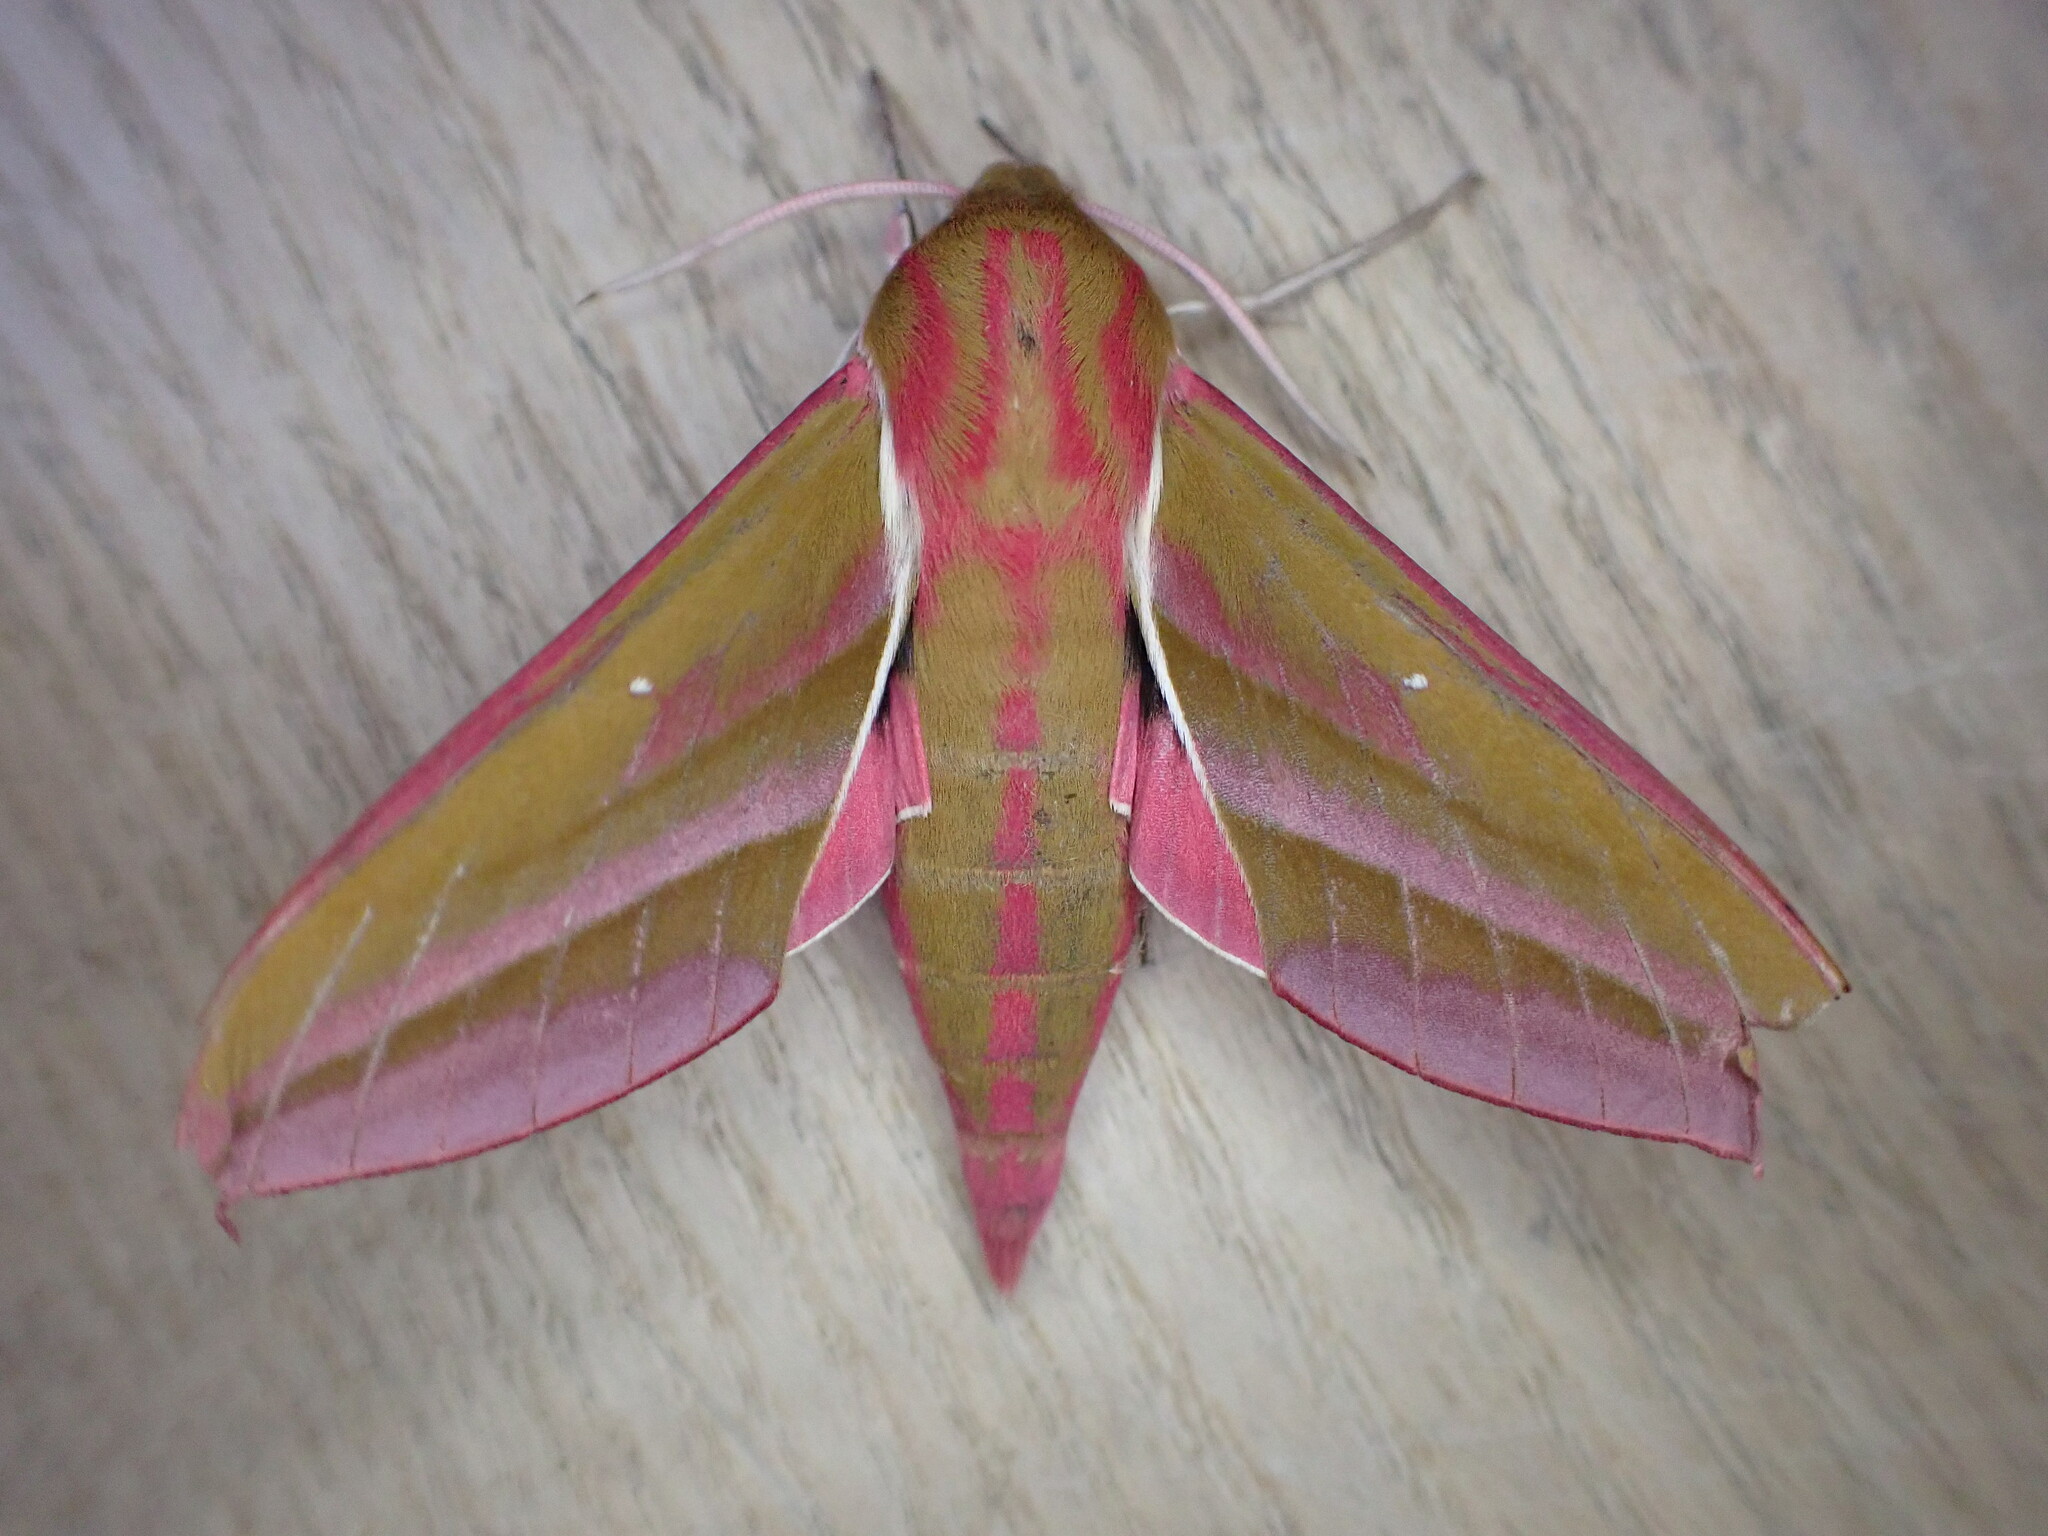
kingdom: Animalia
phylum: Arthropoda
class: Insecta
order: Lepidoptera
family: Sphingidae
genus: Deilephila
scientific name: Deilephila elpenor
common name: Elephant hawk-moth
